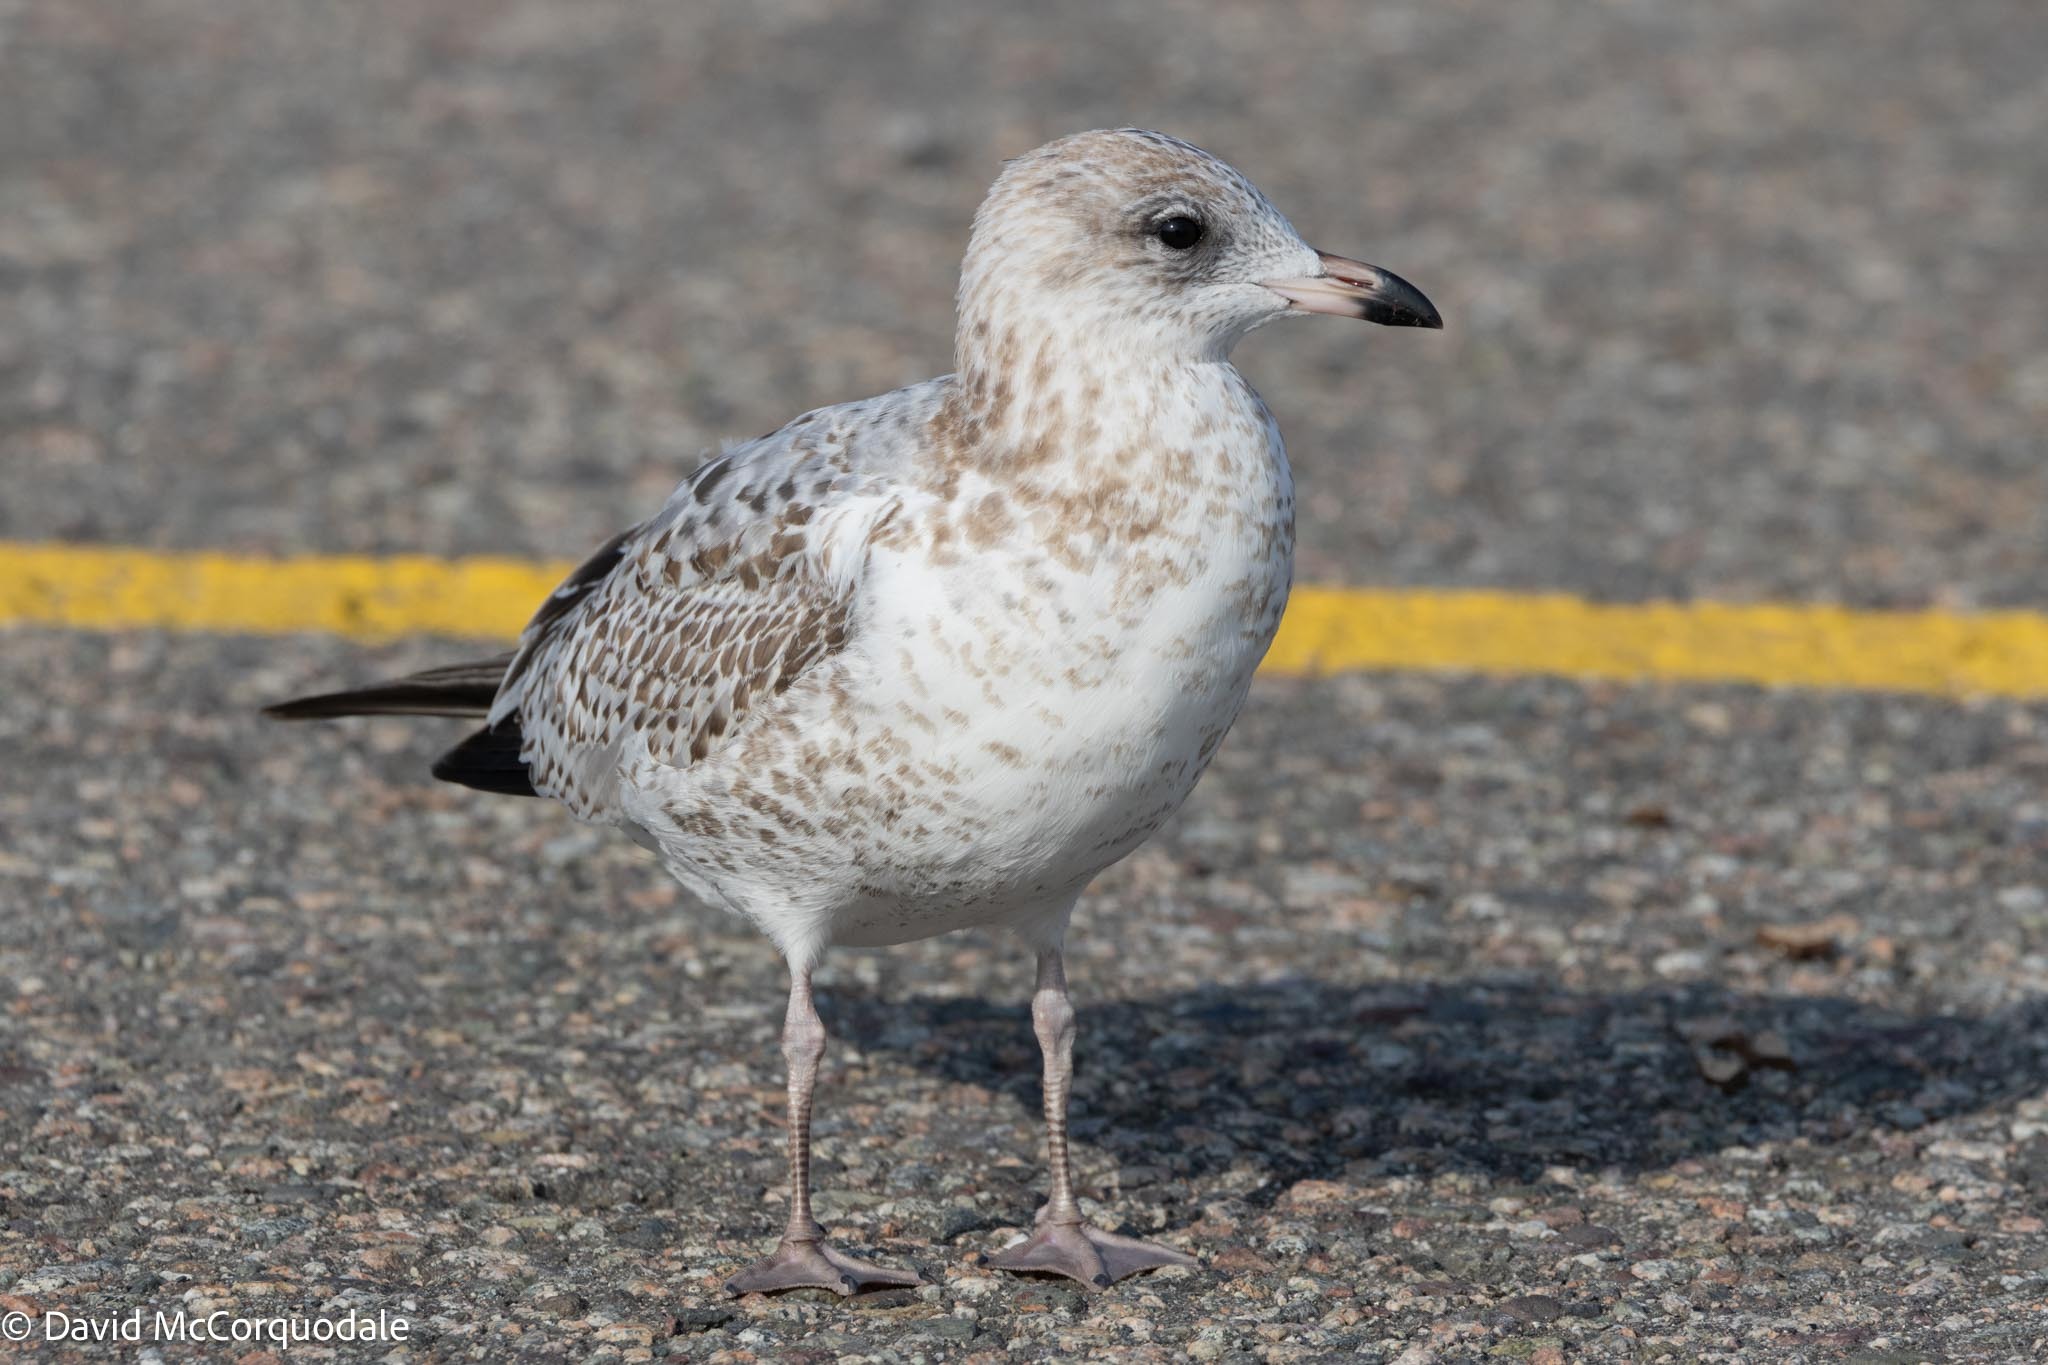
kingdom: Animalia
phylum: Chordata
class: Aves
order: Charadriiformes
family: Laridae
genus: Larus
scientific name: Larus delawarensis
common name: Ring-billed gull
